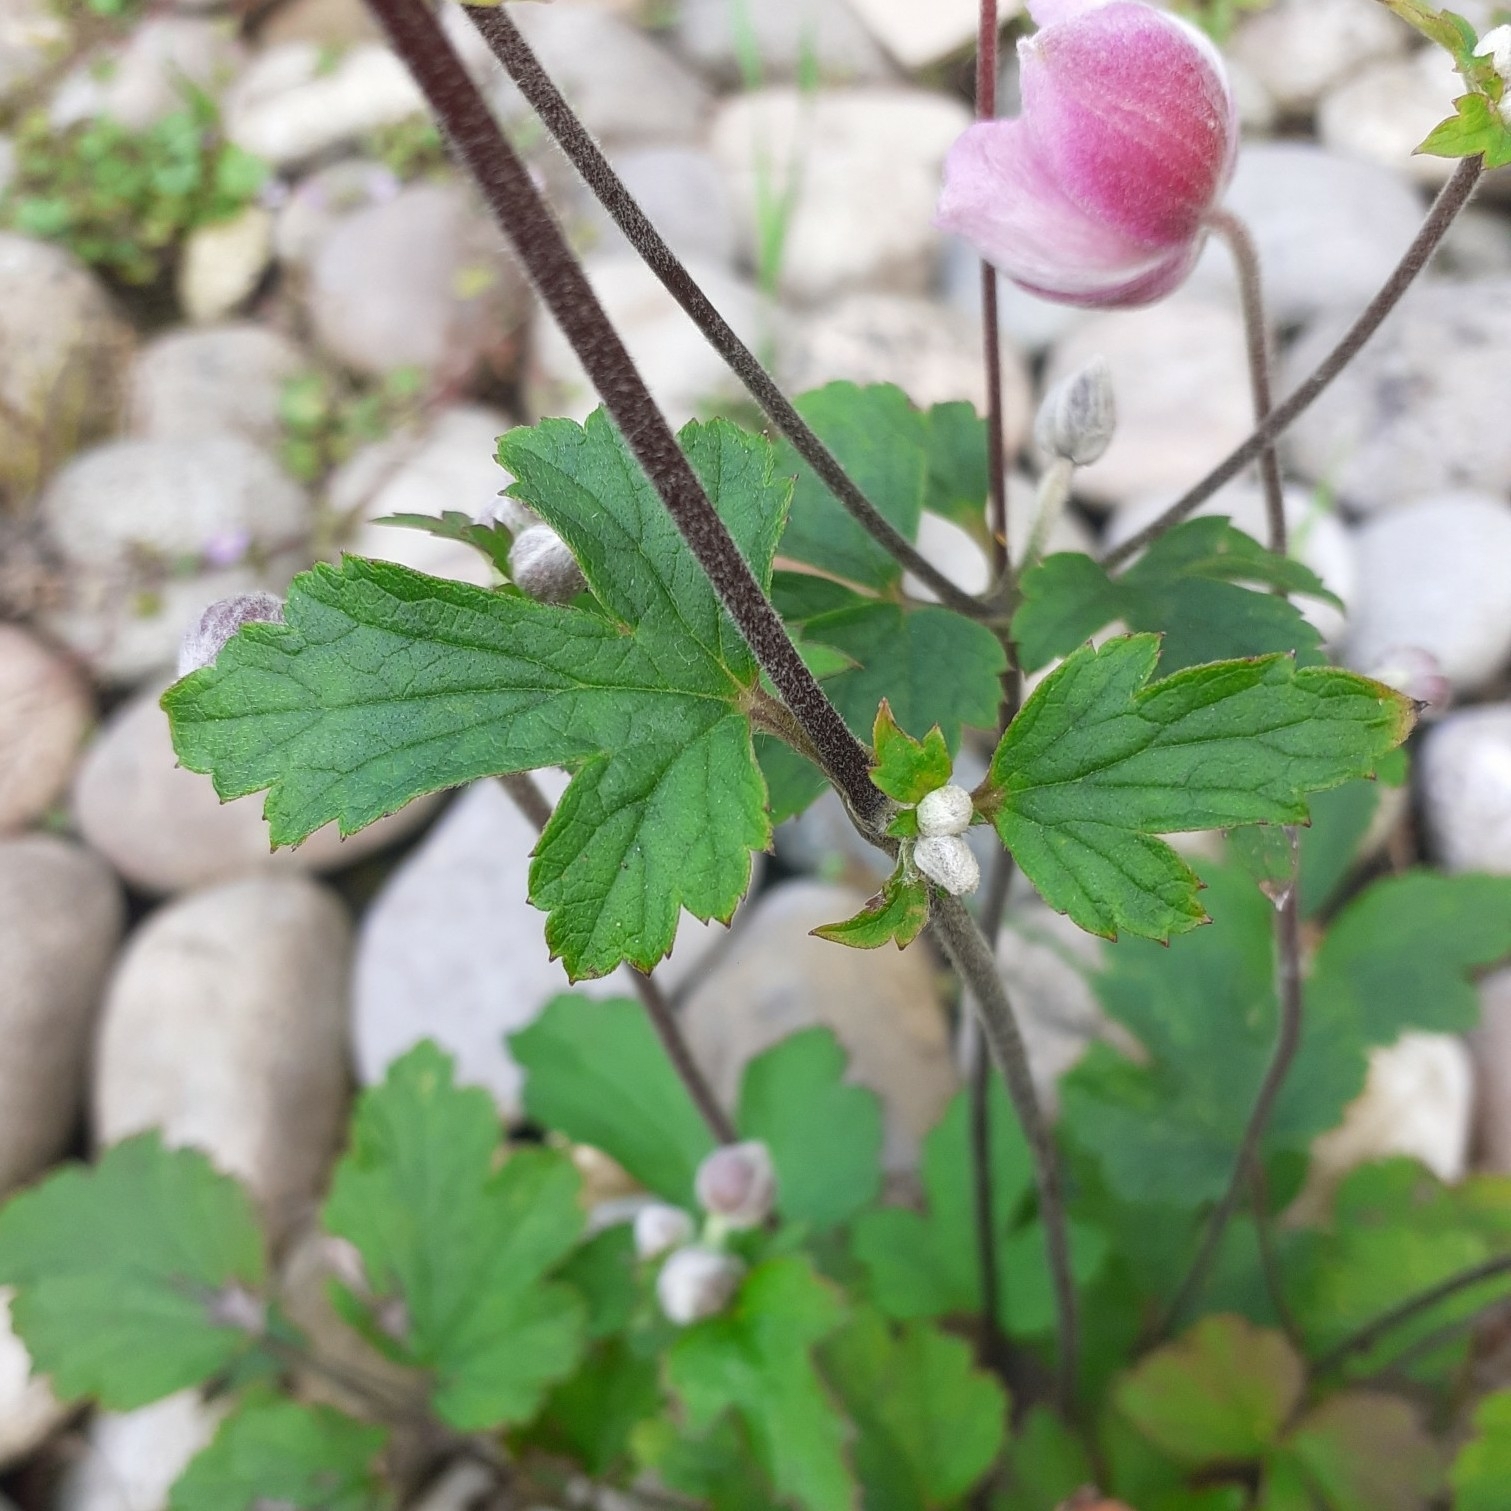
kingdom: Plantae
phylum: Tracheophyta
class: Magnoliopsida
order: Ranunculales
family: Ranunculaceae
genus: Eriocapitella
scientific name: Eriocapitella hupehensis
